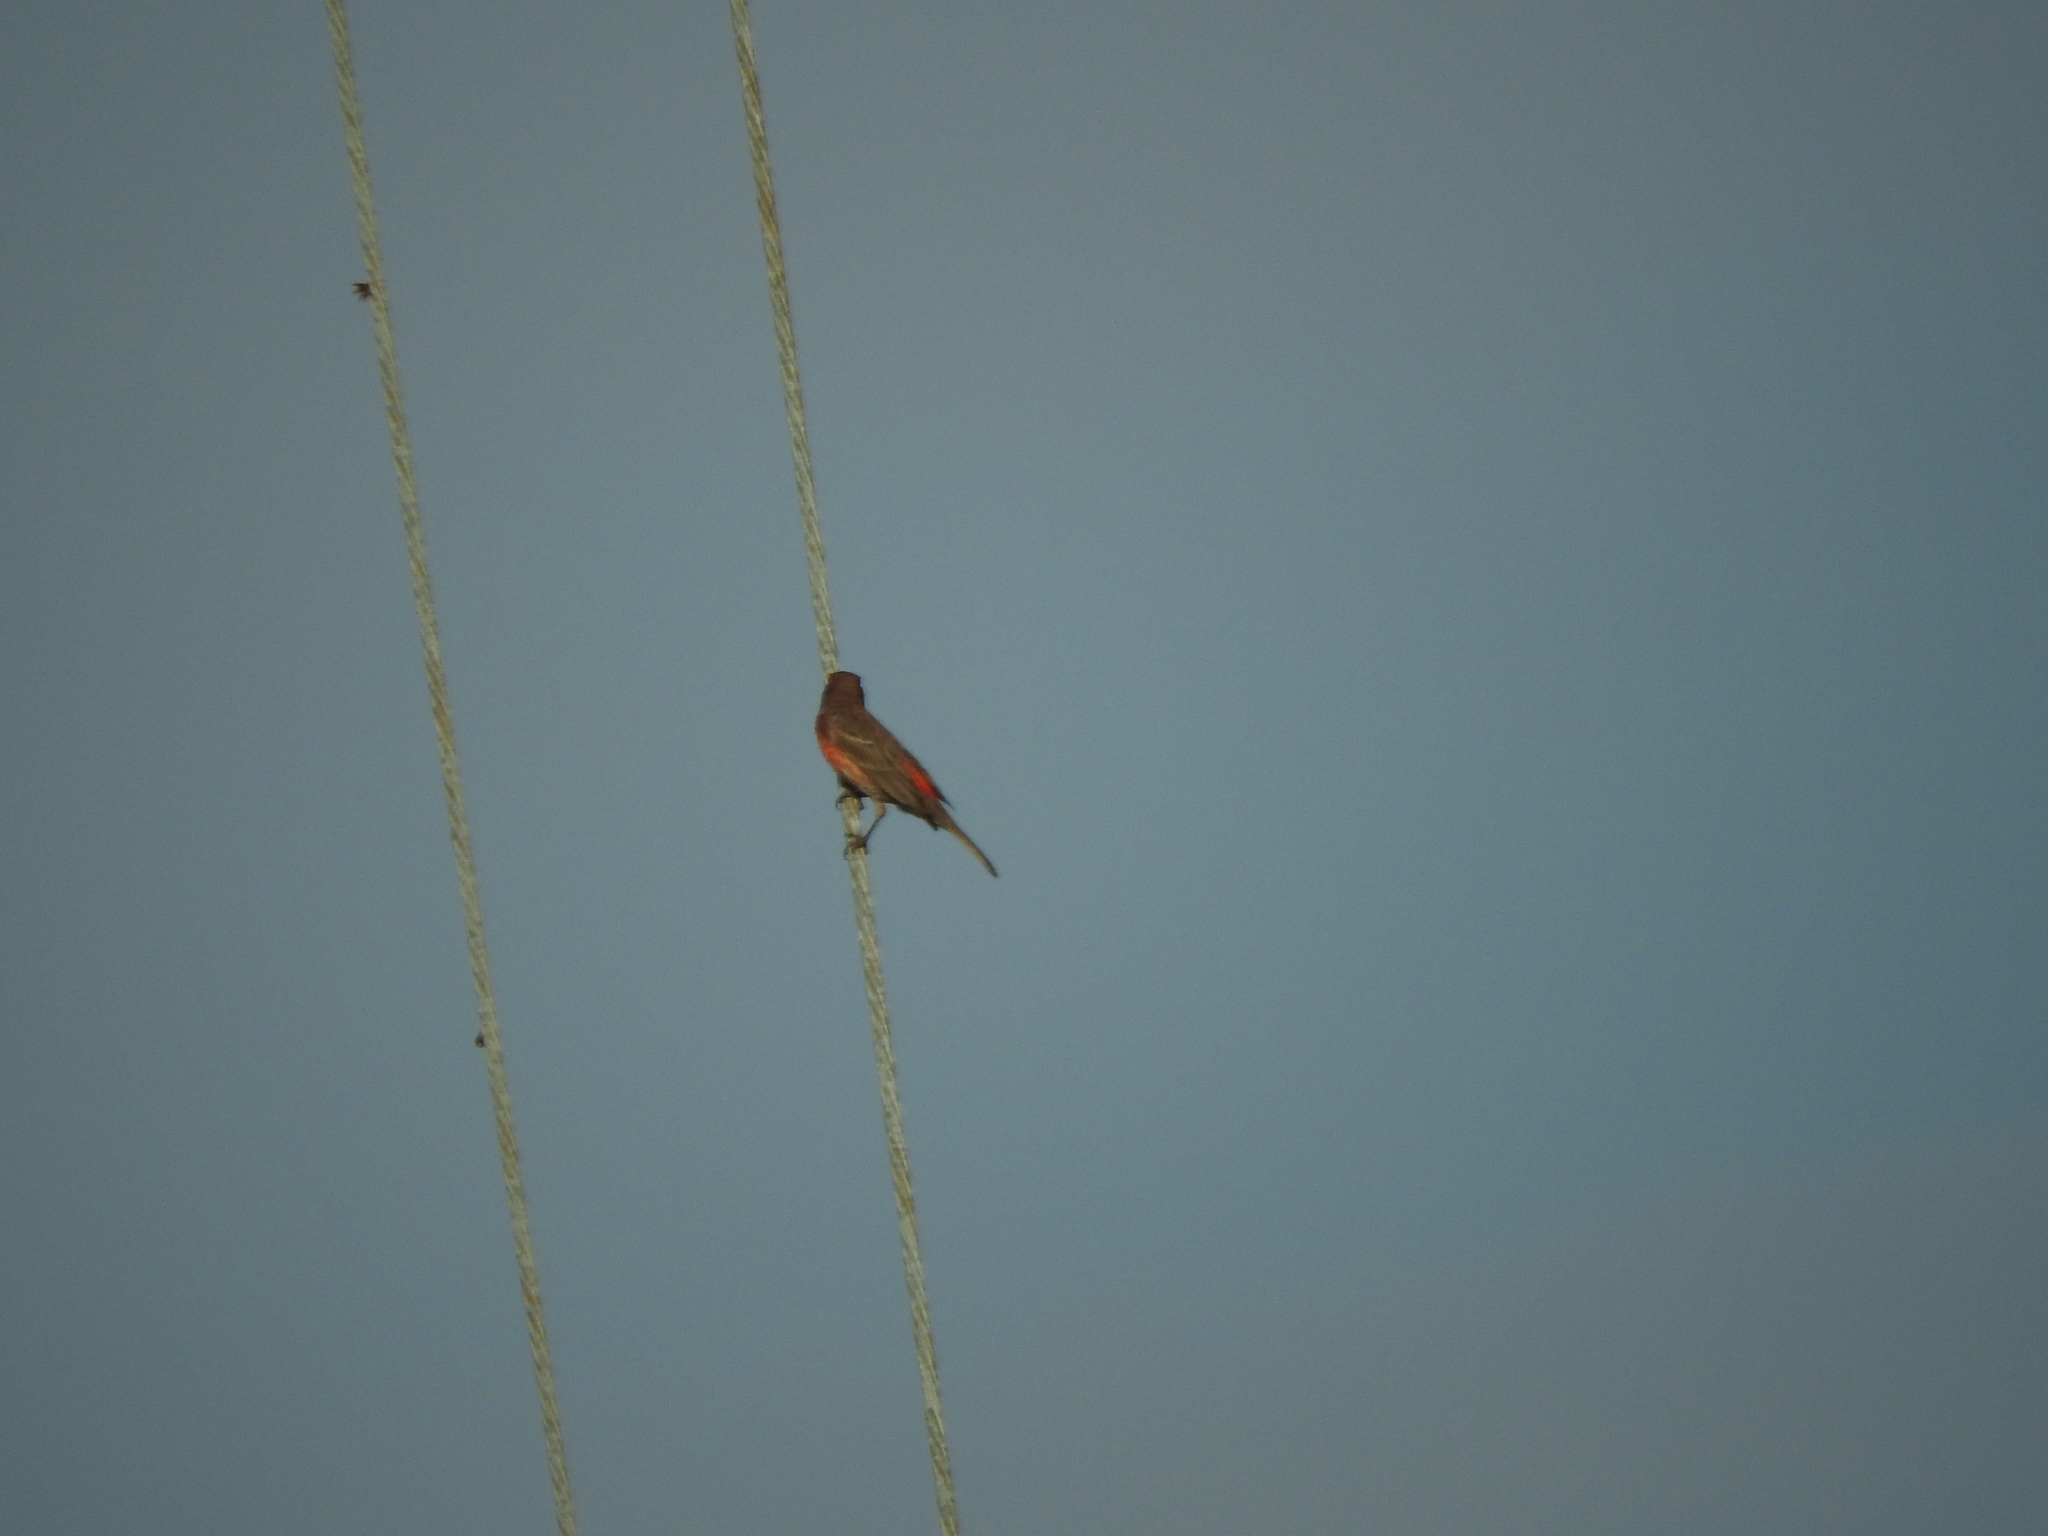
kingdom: Animalia
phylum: Chordata
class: Aves
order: Passeriformes
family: Tyrannidae
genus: Tyrannus
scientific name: Tyrannus vociferans
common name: Cassin's kingbird
